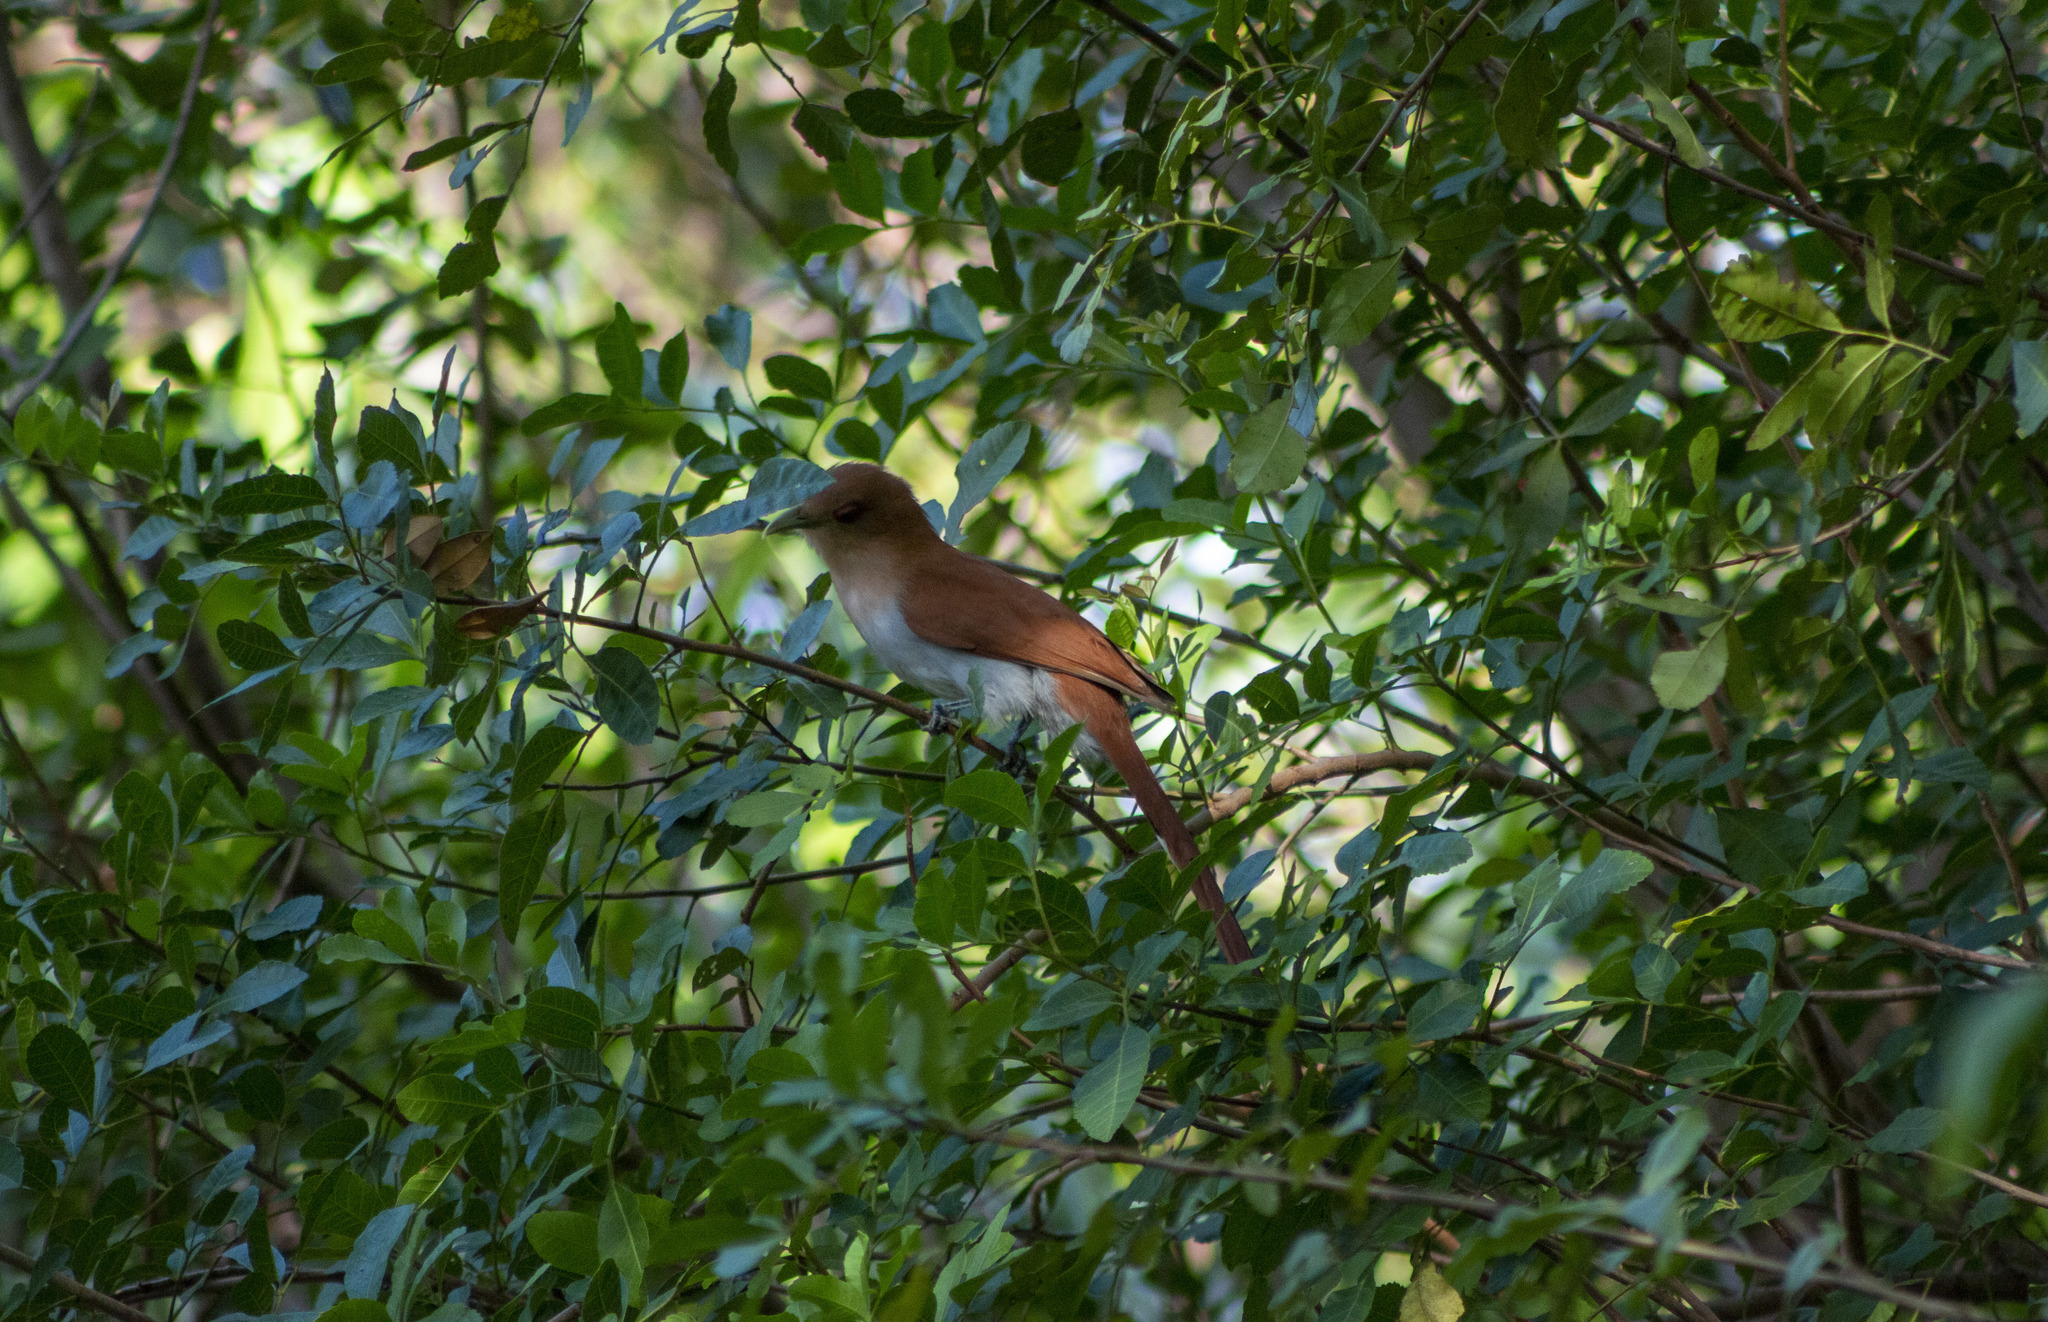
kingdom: Animalia
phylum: Chordata
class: Aves
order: Cuculiformes
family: Cuculidae
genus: Piaya
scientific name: Piaya cayana
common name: Squirrel cuckoo
